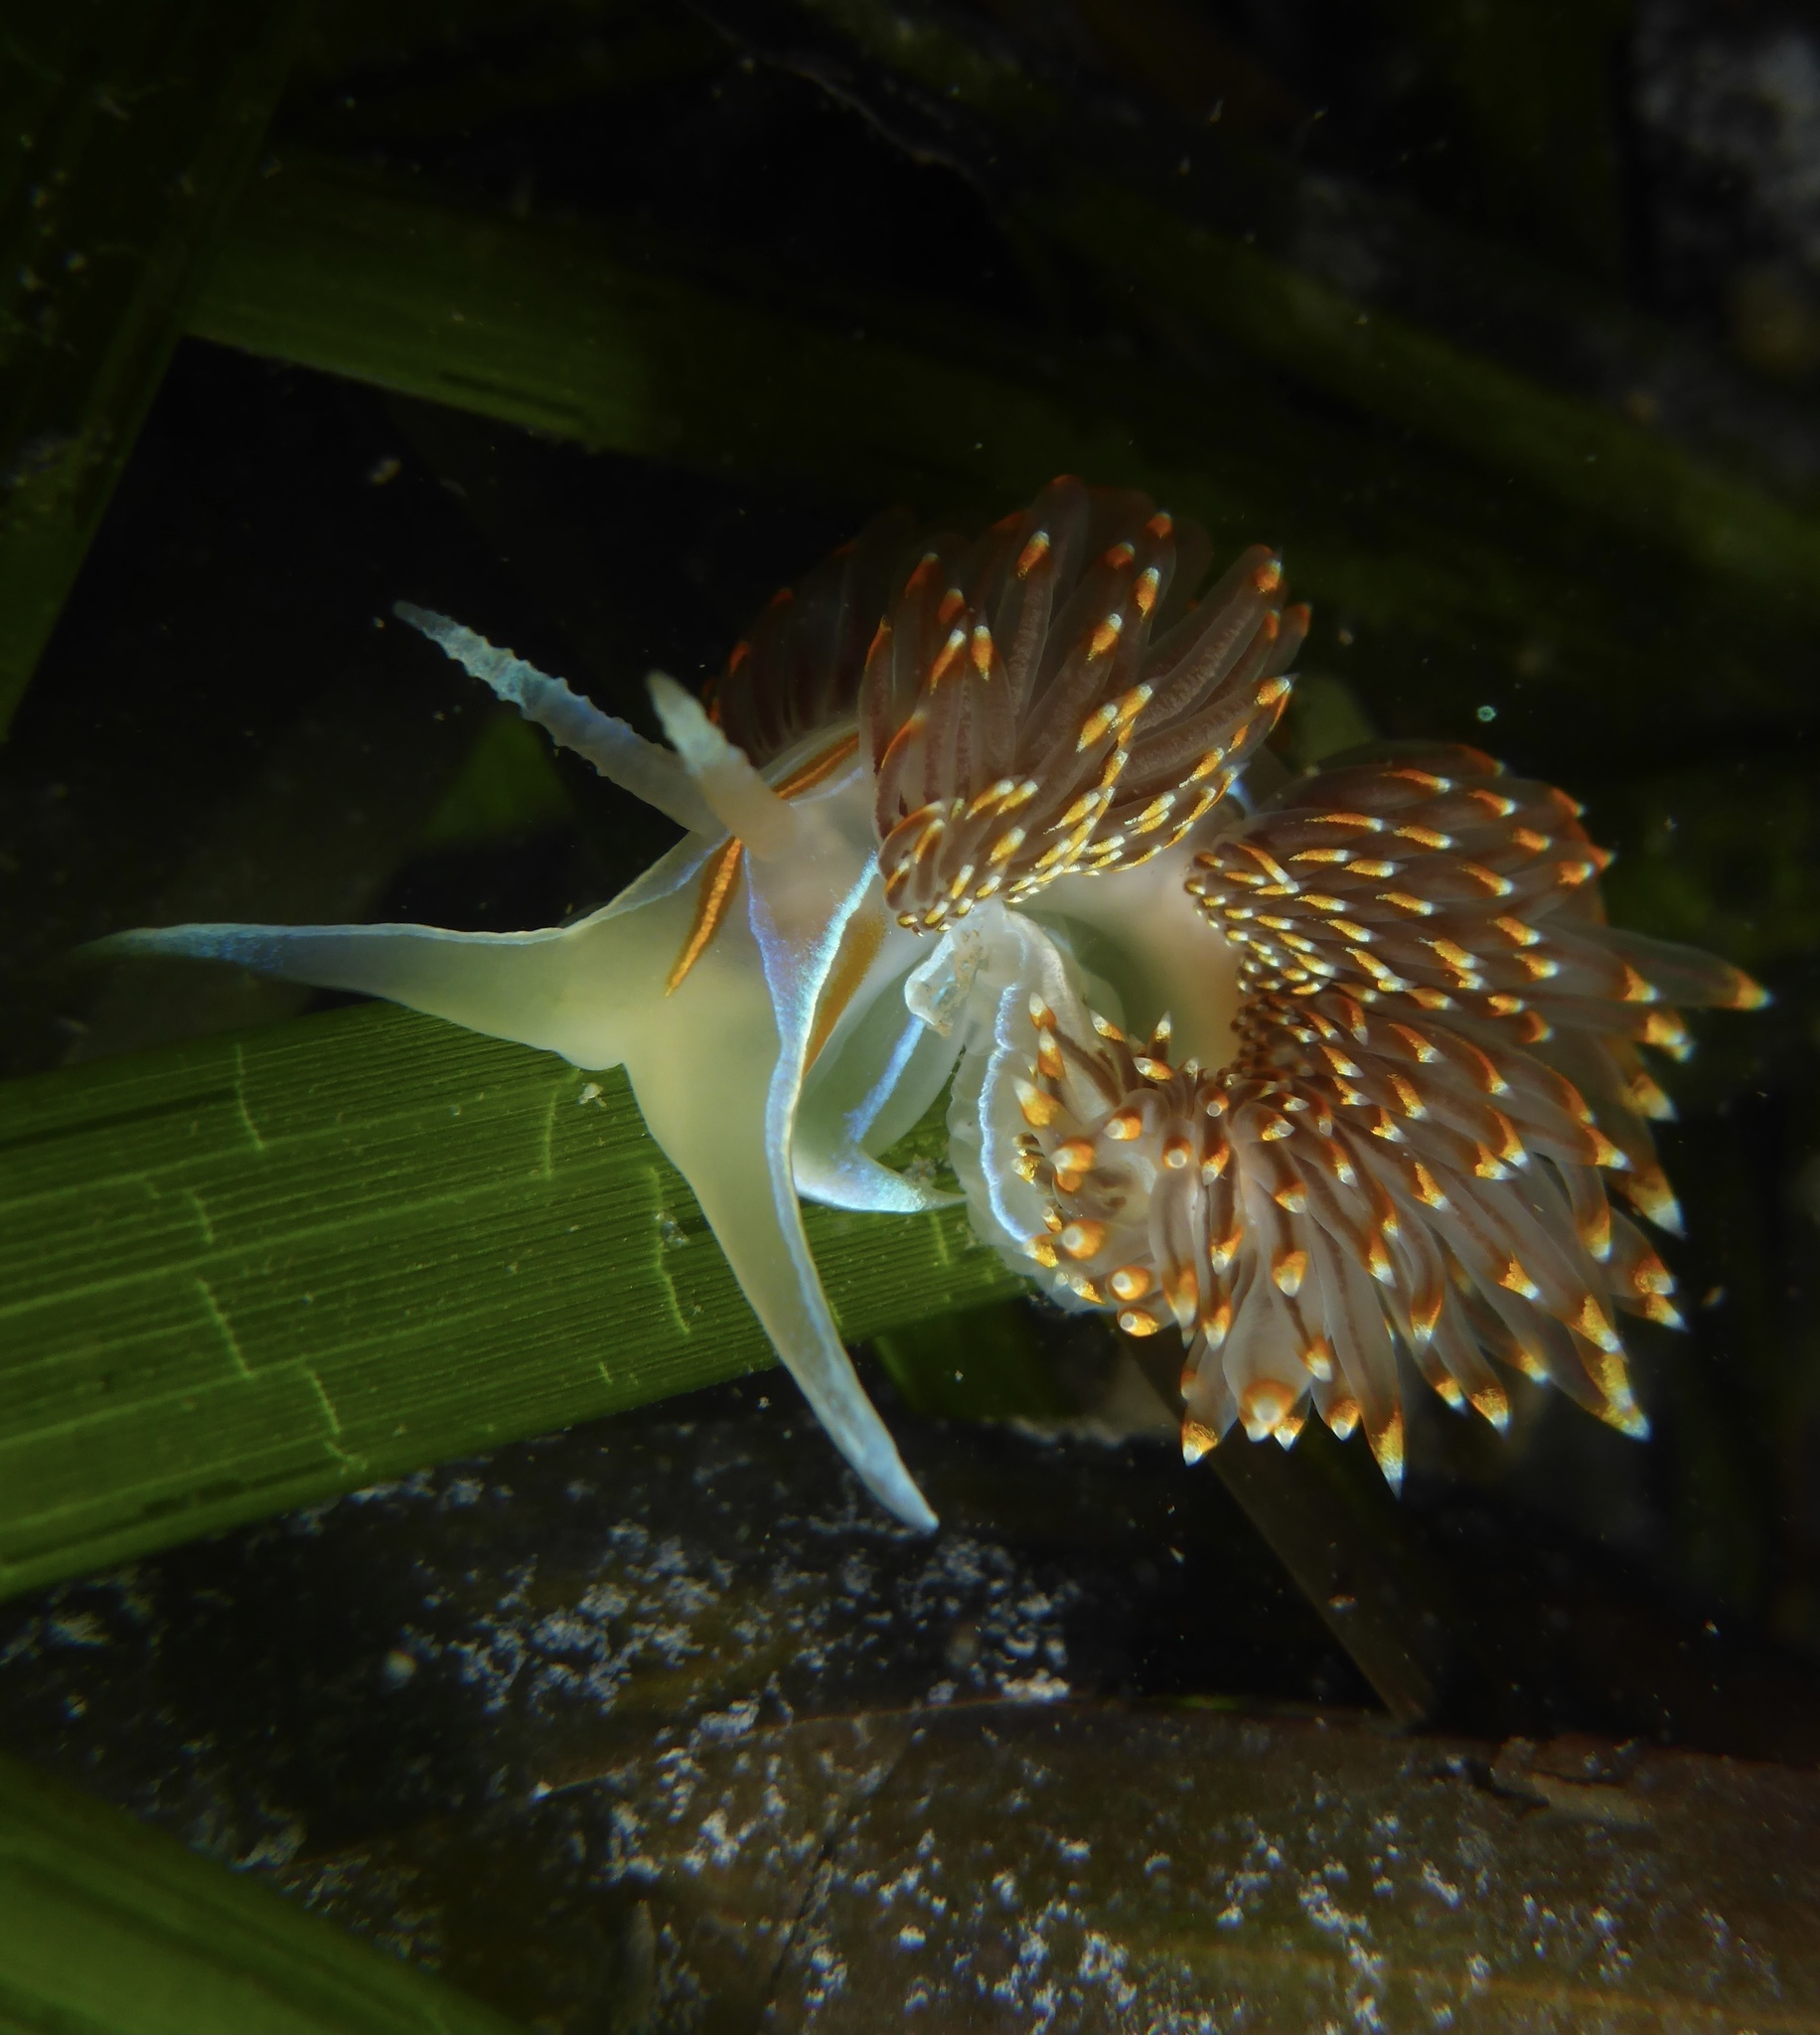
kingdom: Animalia
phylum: Mollusca
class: Gastropoda
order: Nudibranchia
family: Myrrhinidae
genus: Hermissenda
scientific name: Hermissenda opalescens
